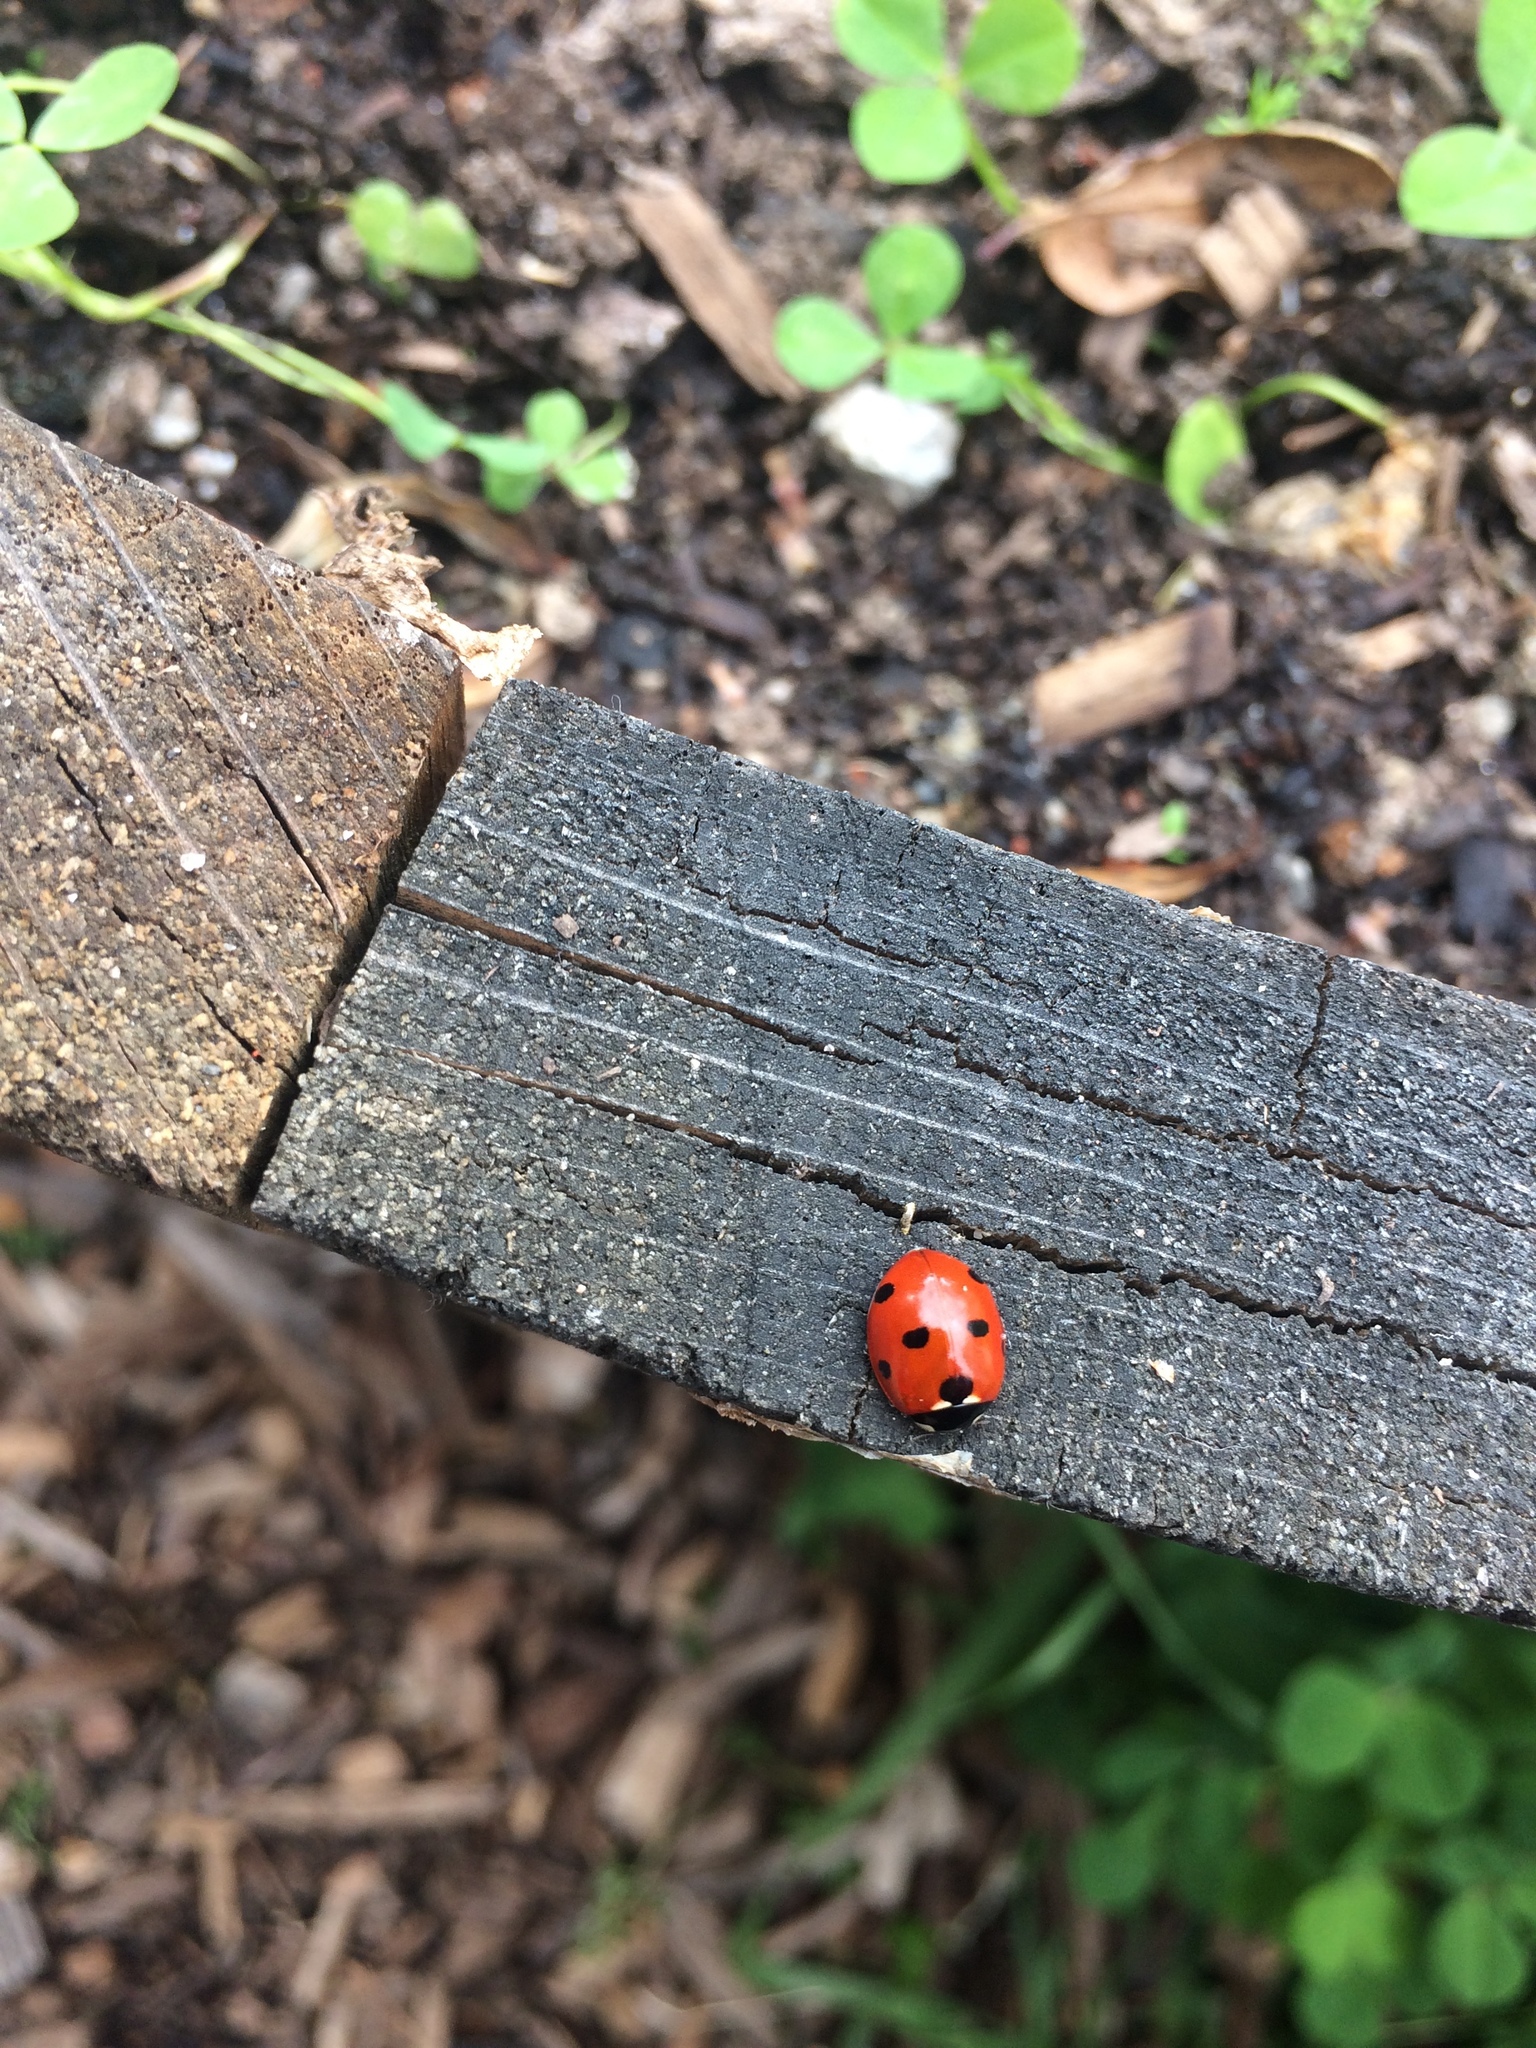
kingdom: Animalia
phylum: Arthropoda
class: Insecta
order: Coleoptera
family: Coccinellidae
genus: Coccinella
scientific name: Coccinella septempunctata
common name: Sevenspotted lady beetle
